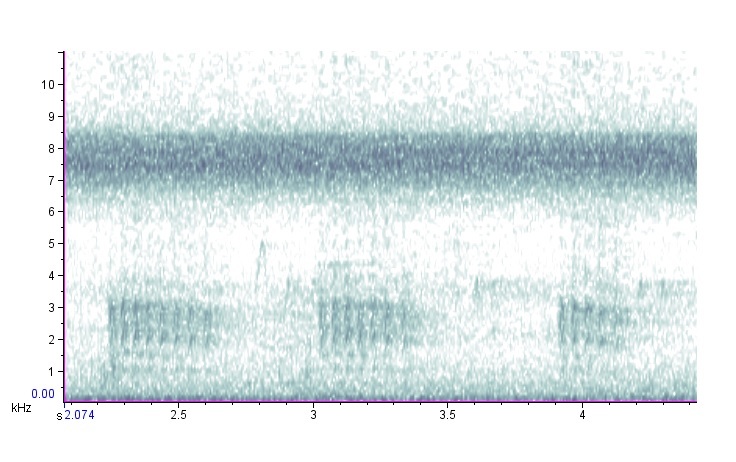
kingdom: Animalia
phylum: Chordata
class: Aves
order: Piciformes
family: Picidae
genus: Melanerpes
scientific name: Melanerpes erythrocephalus
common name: Red-headed woodpecker
